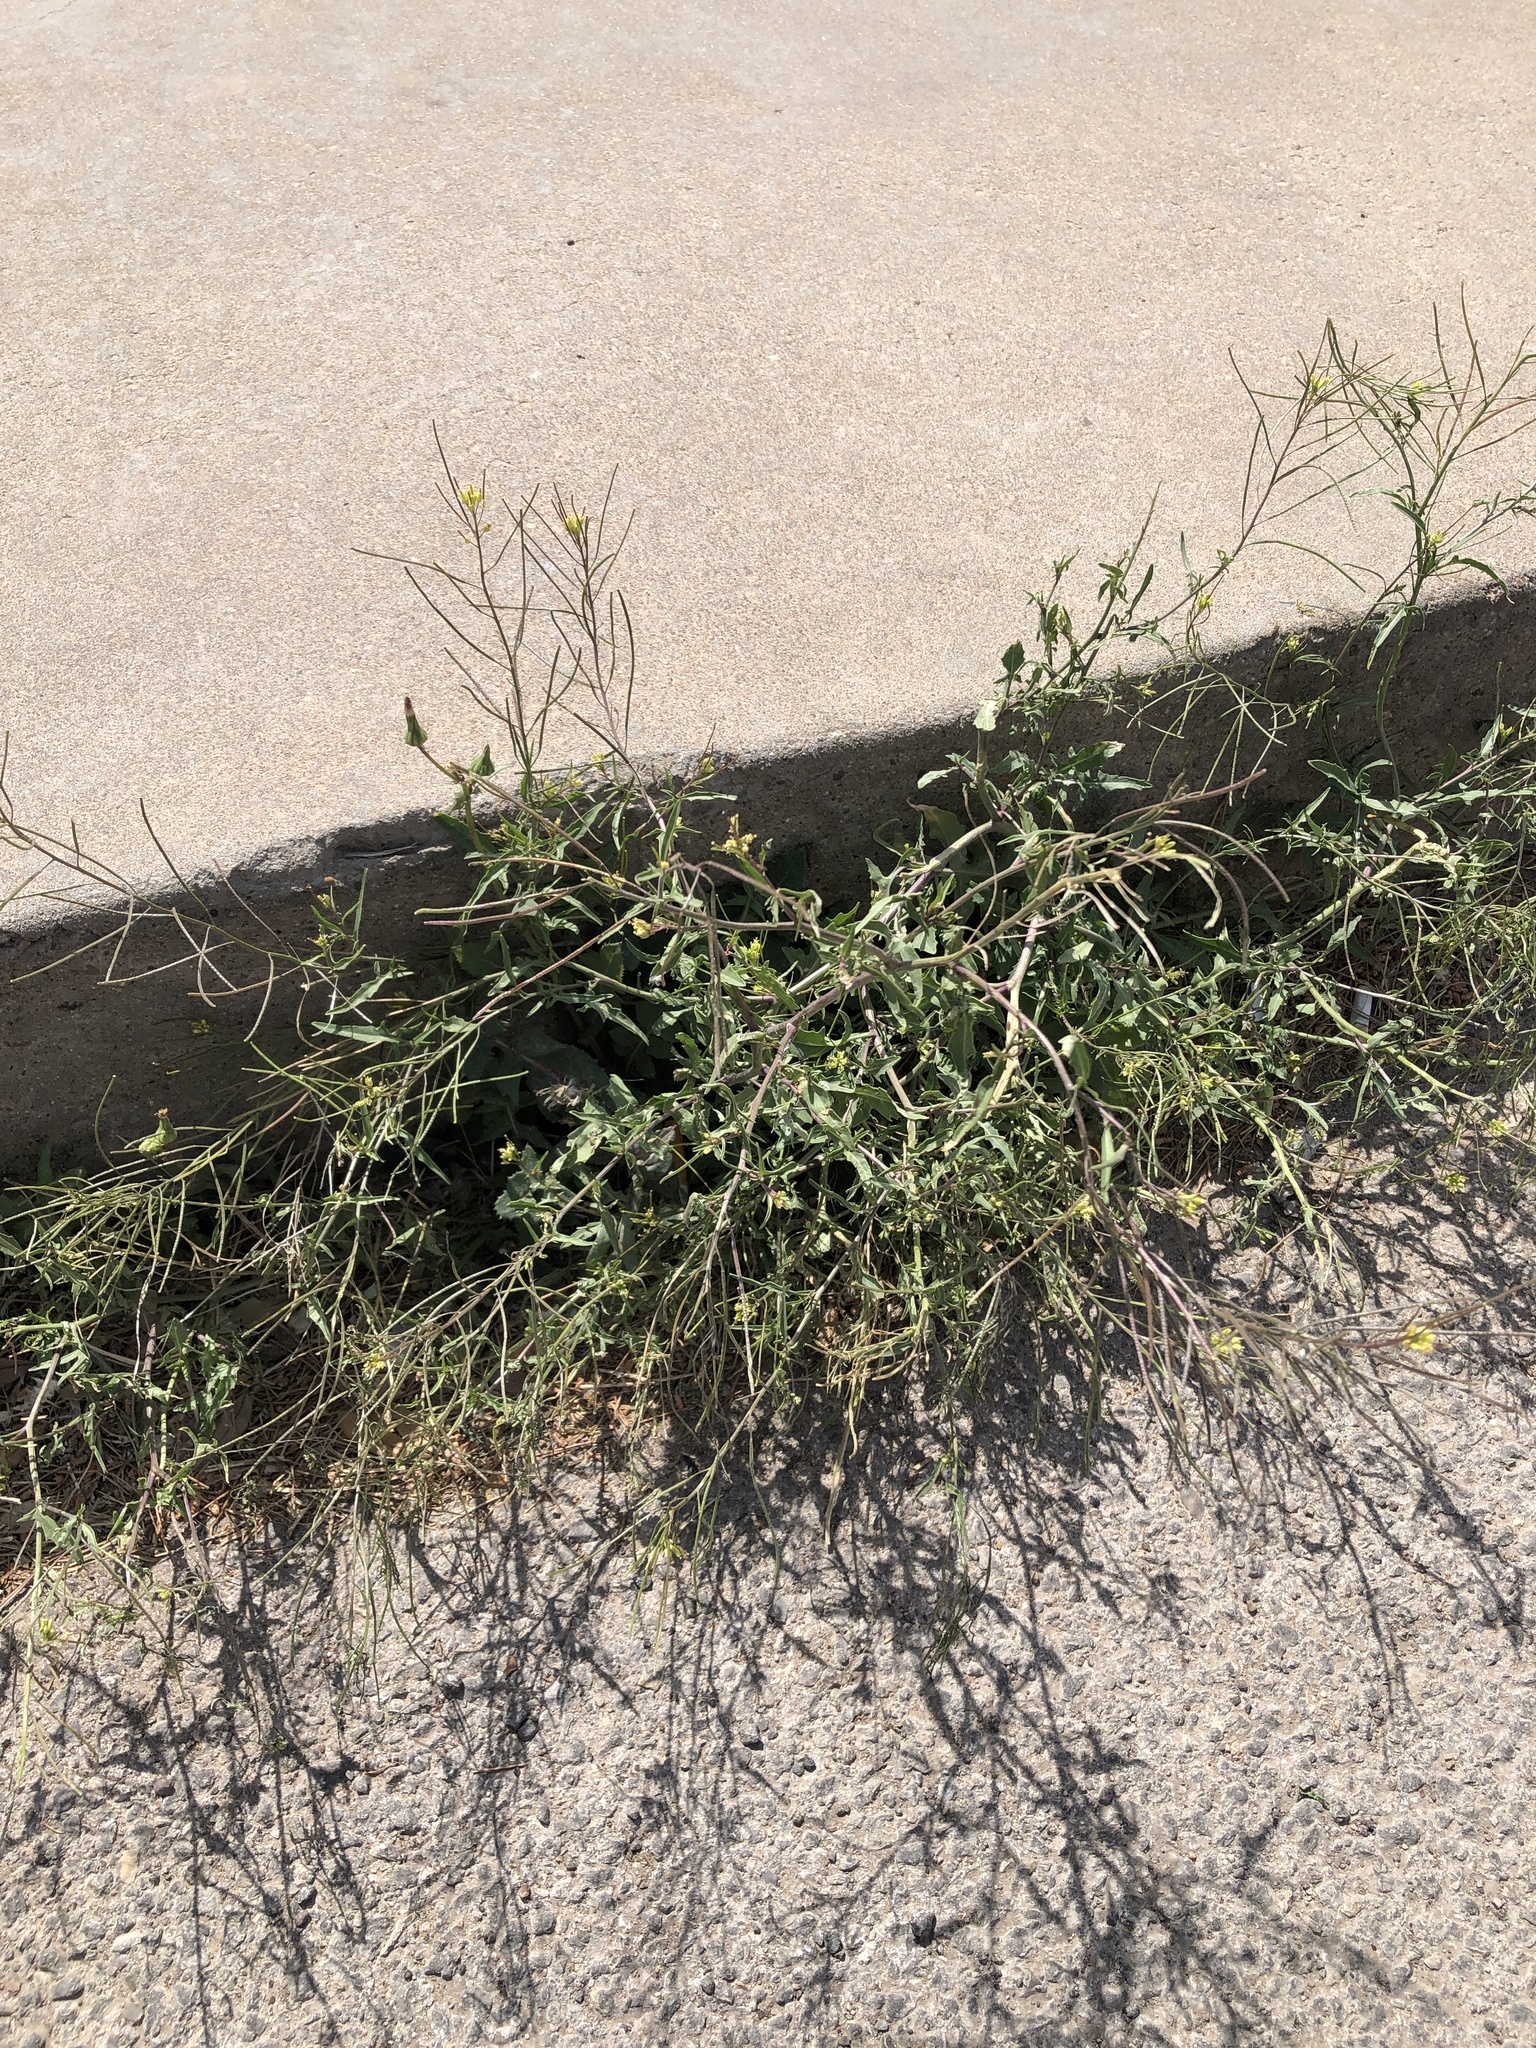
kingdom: Plantae
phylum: Tracheophyta
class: Magnoliopsida
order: Brassicales
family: Brassicaceae
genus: Sisymbrium
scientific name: Sisymbrium irio
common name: London rocket
